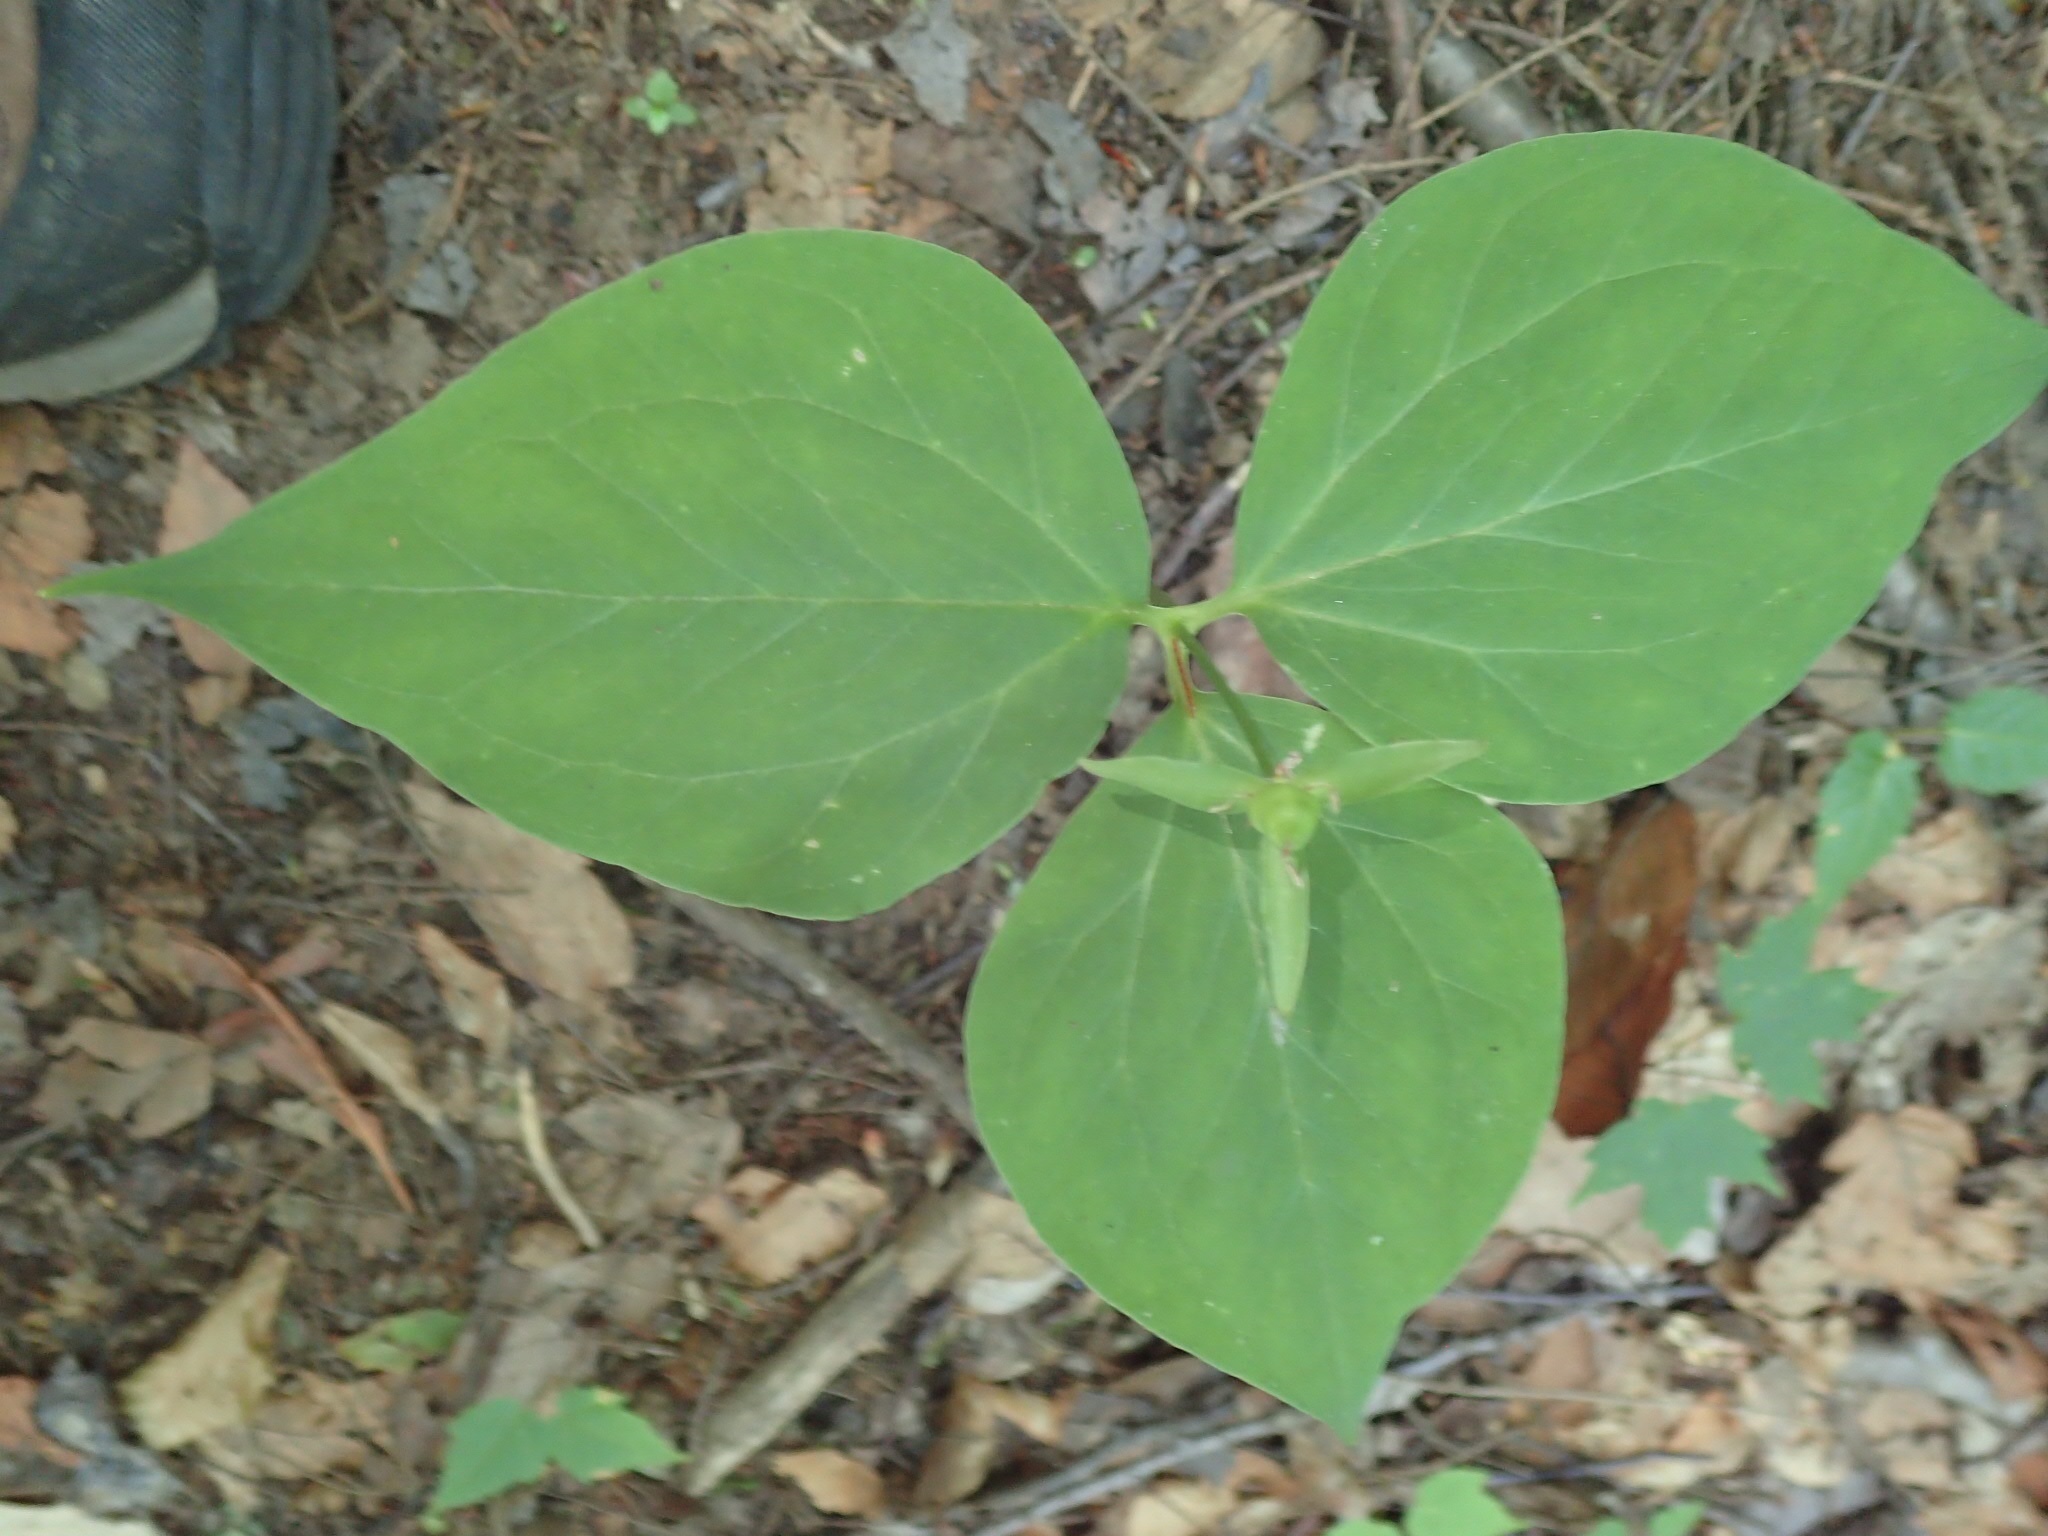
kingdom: Plantae
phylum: Tracheophyta
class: Liliopsida
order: Liliales
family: Melanthiaceae
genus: Trillium
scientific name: Trillium undulatum
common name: Paint trillium
